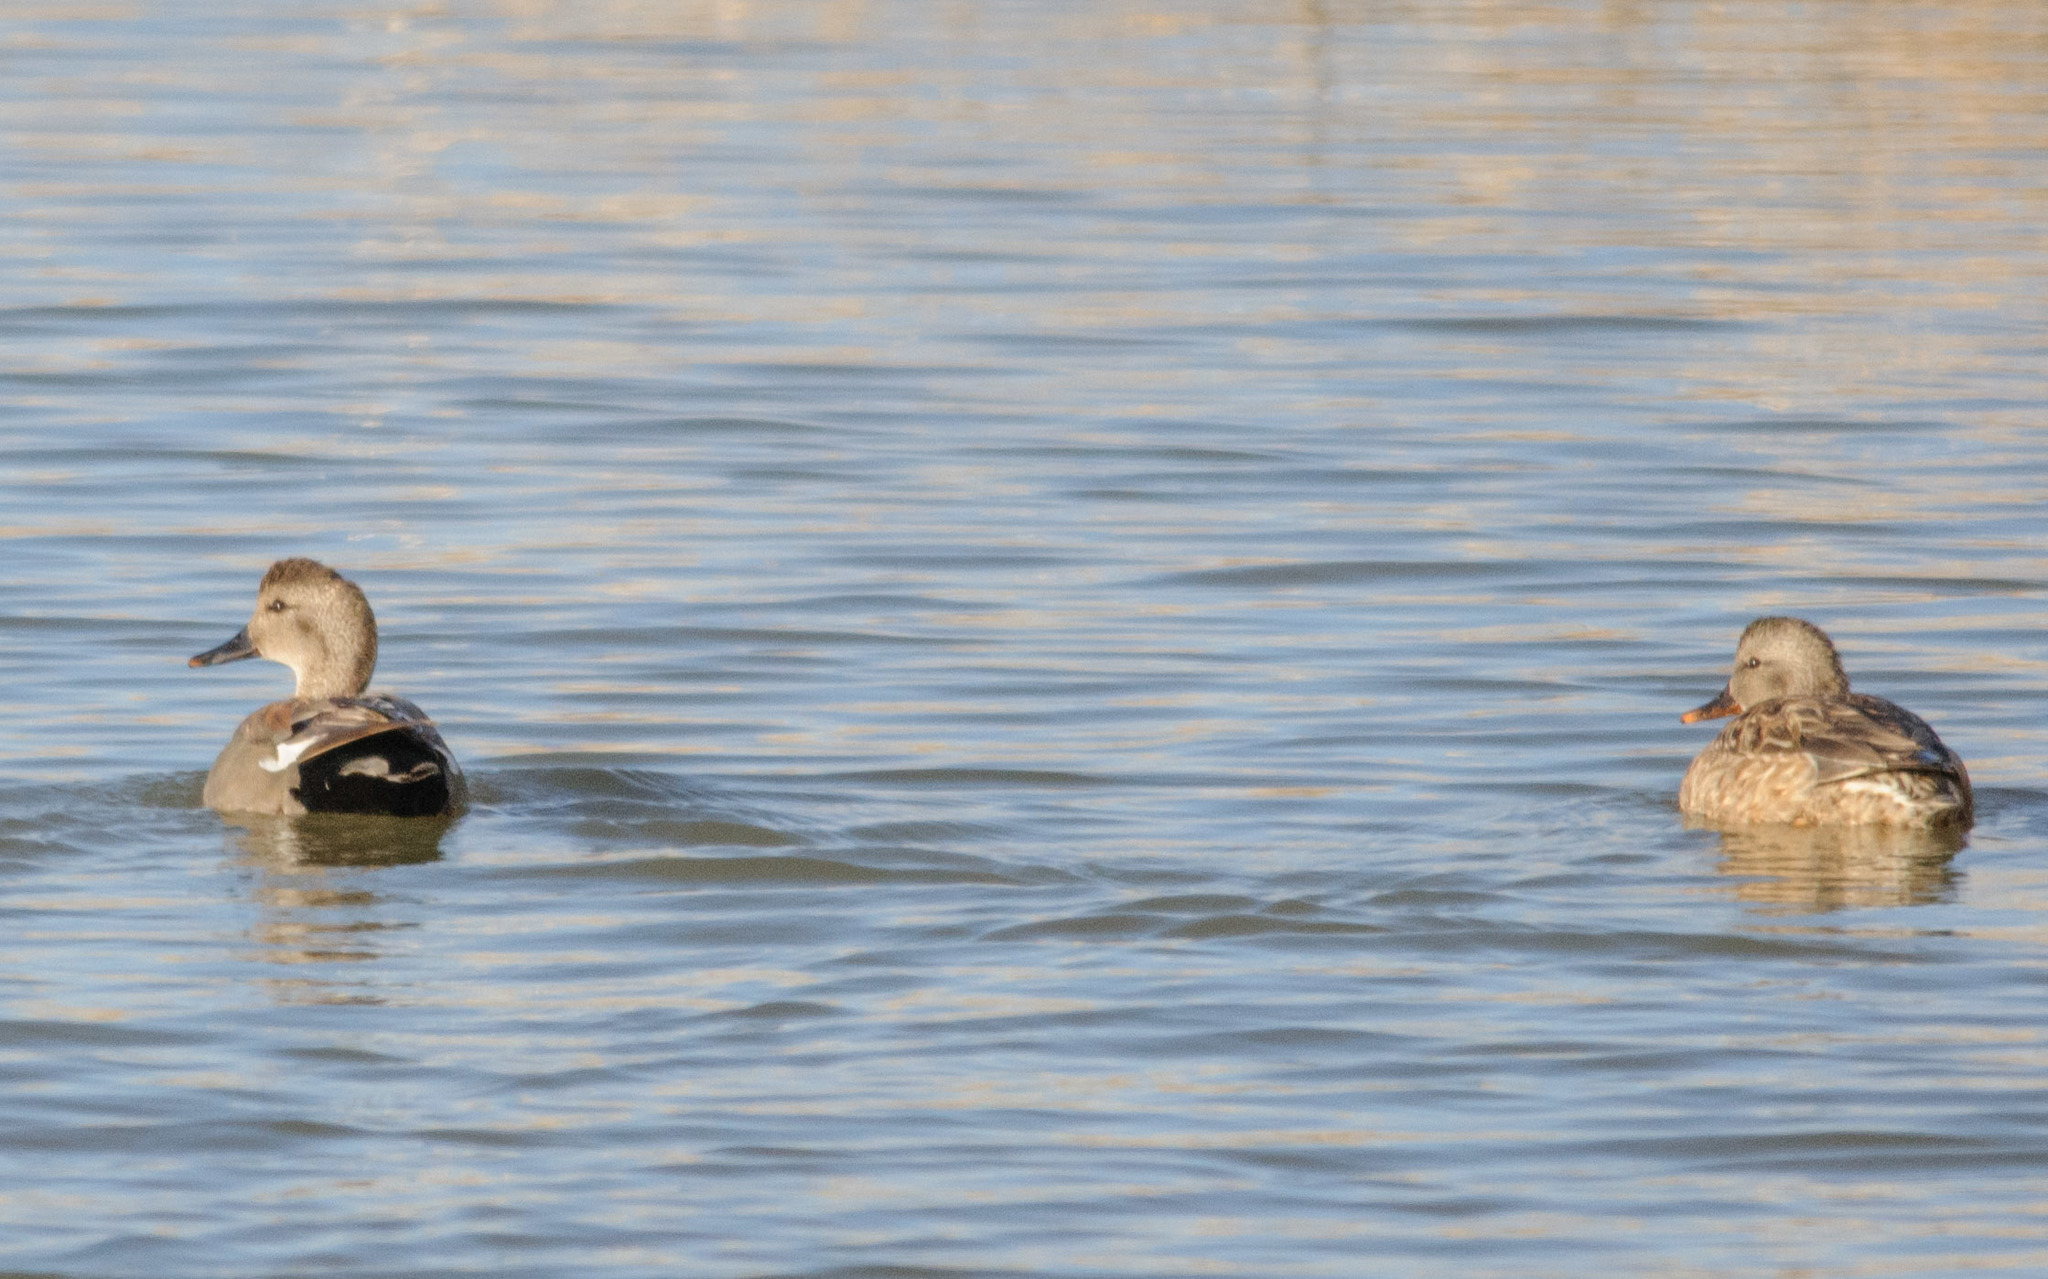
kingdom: Animalia
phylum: Chordata
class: Aves
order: Anseriformes
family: Anatidae
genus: Mareca
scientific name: Mareca strepera
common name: Gadwall
